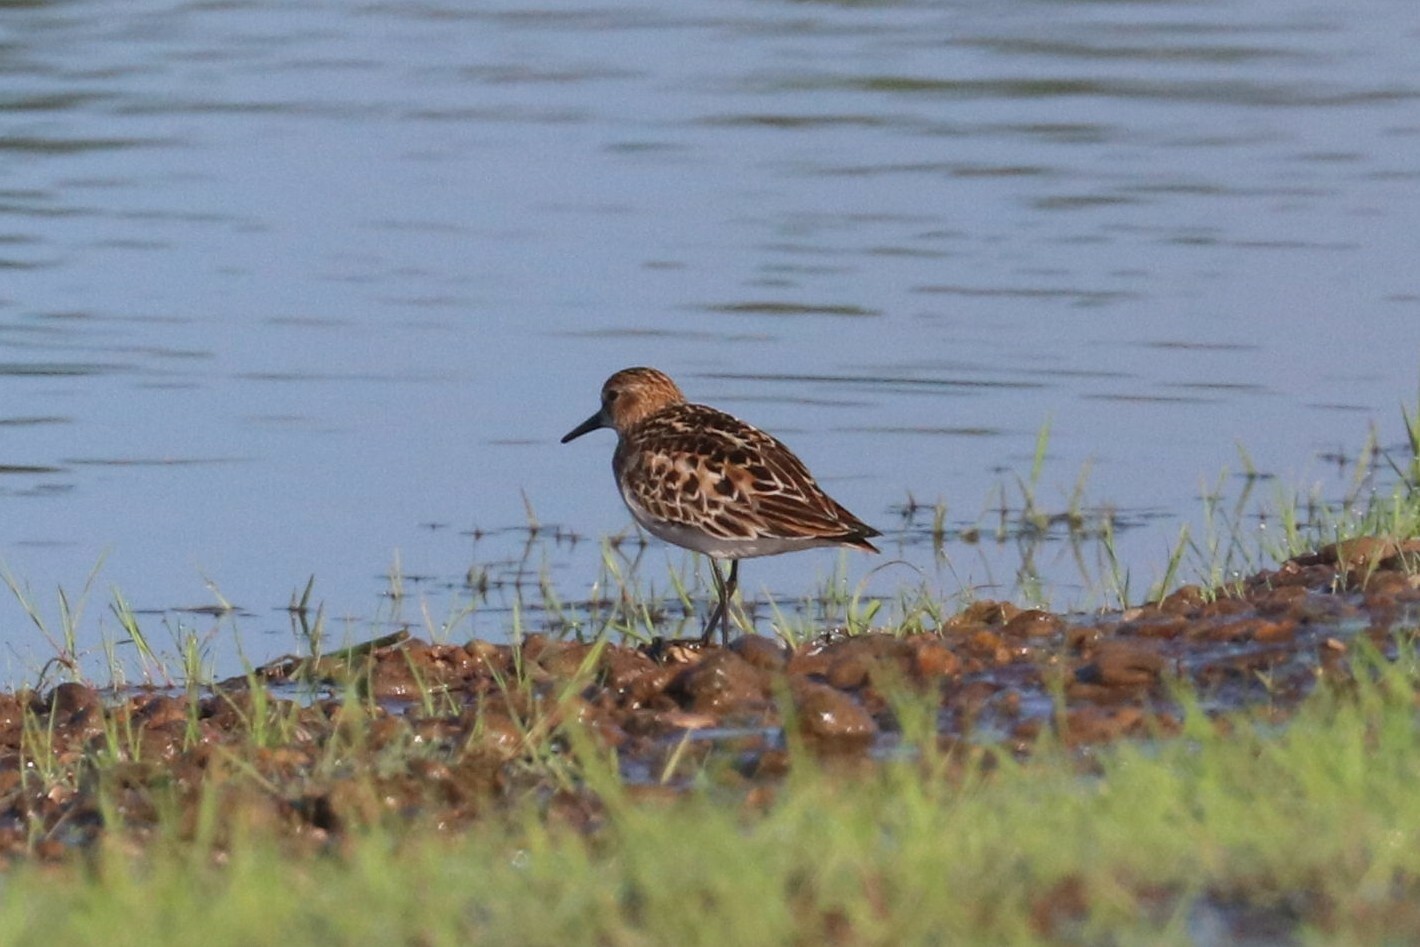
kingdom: Animalia
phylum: Chordata
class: Aves
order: Charadriiformes
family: Scolopacidae
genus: Calidris
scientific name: Calidris minuta
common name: Little stint
